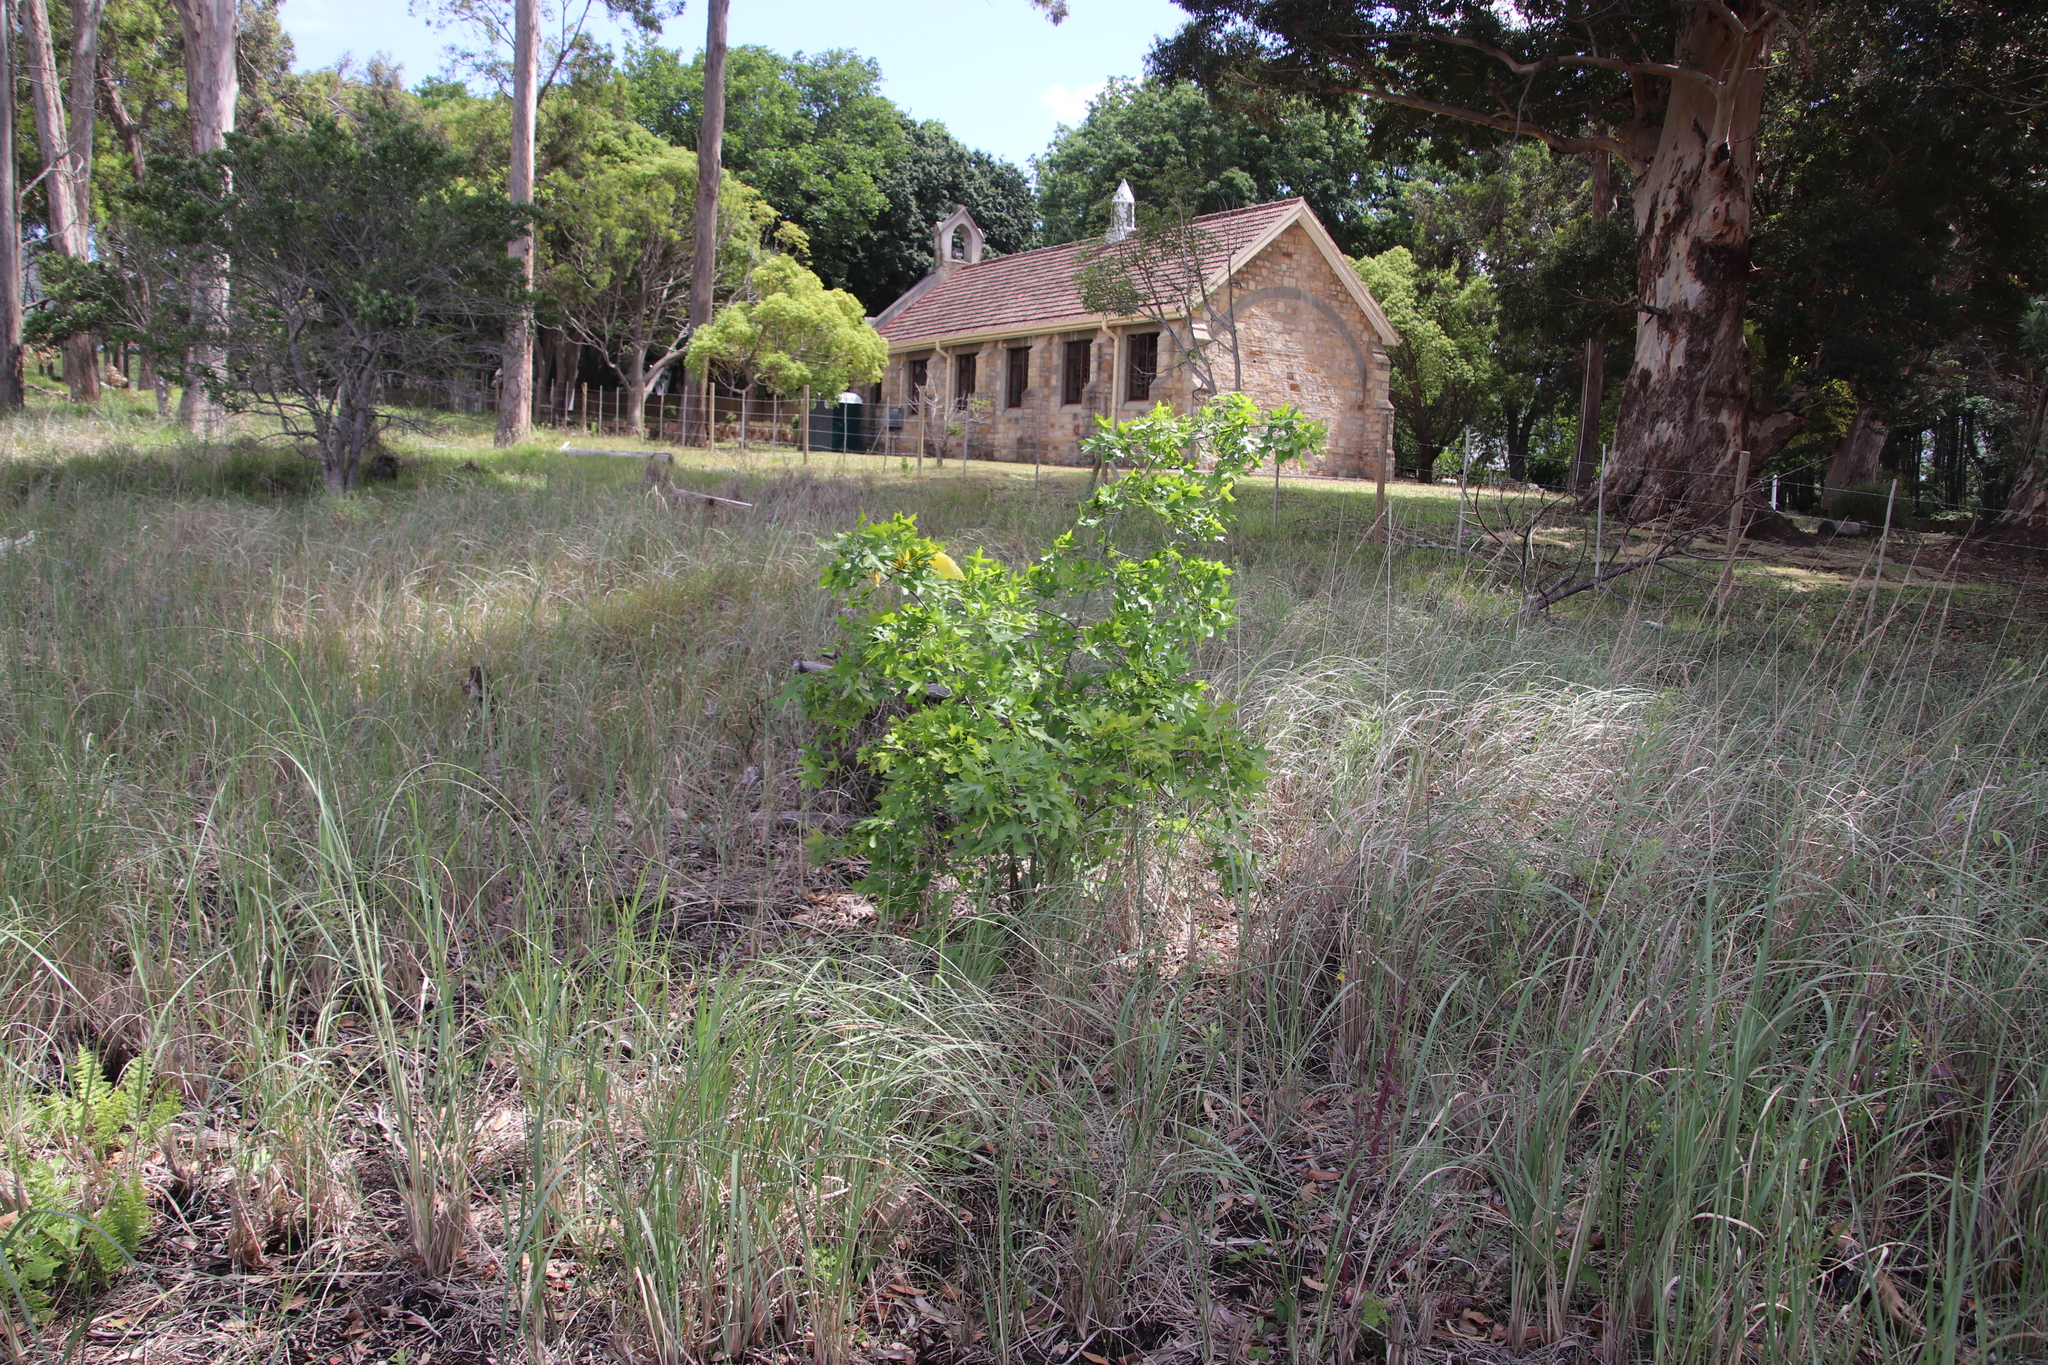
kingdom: Plantae
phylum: Tracheophyta
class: Magnoliopsida
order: Fagales
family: Fagaceae
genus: Quercus
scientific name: Quercus palustris
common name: Pin oak
